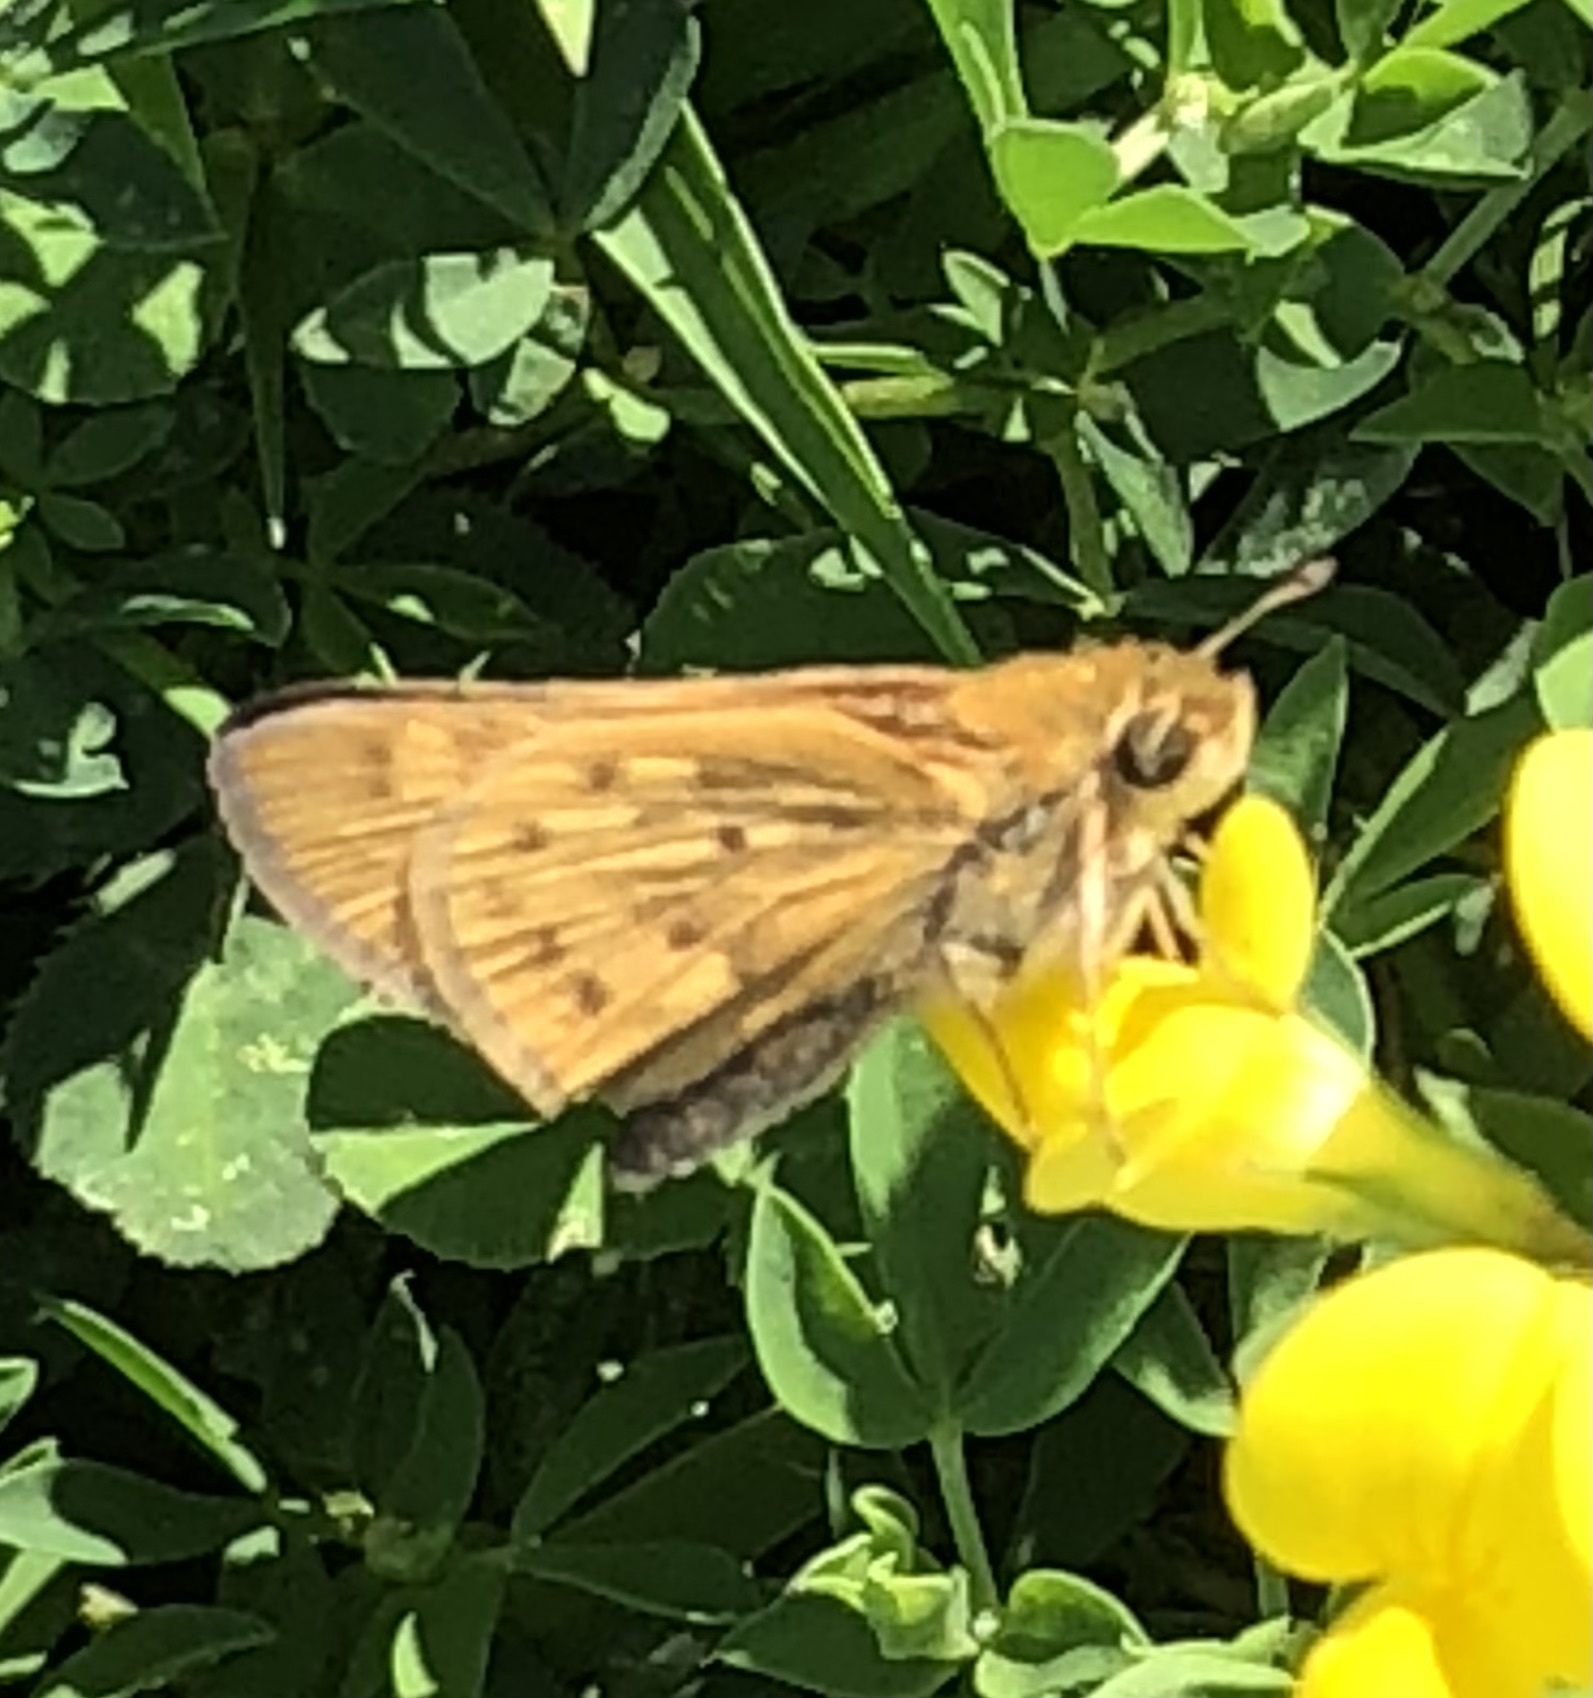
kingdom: Animalia
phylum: Arthropoda
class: Insecta
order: Lepidoptera
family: Hesperiidae
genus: Hylephila
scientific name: Hylephila phyleus
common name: Fiery skipper
